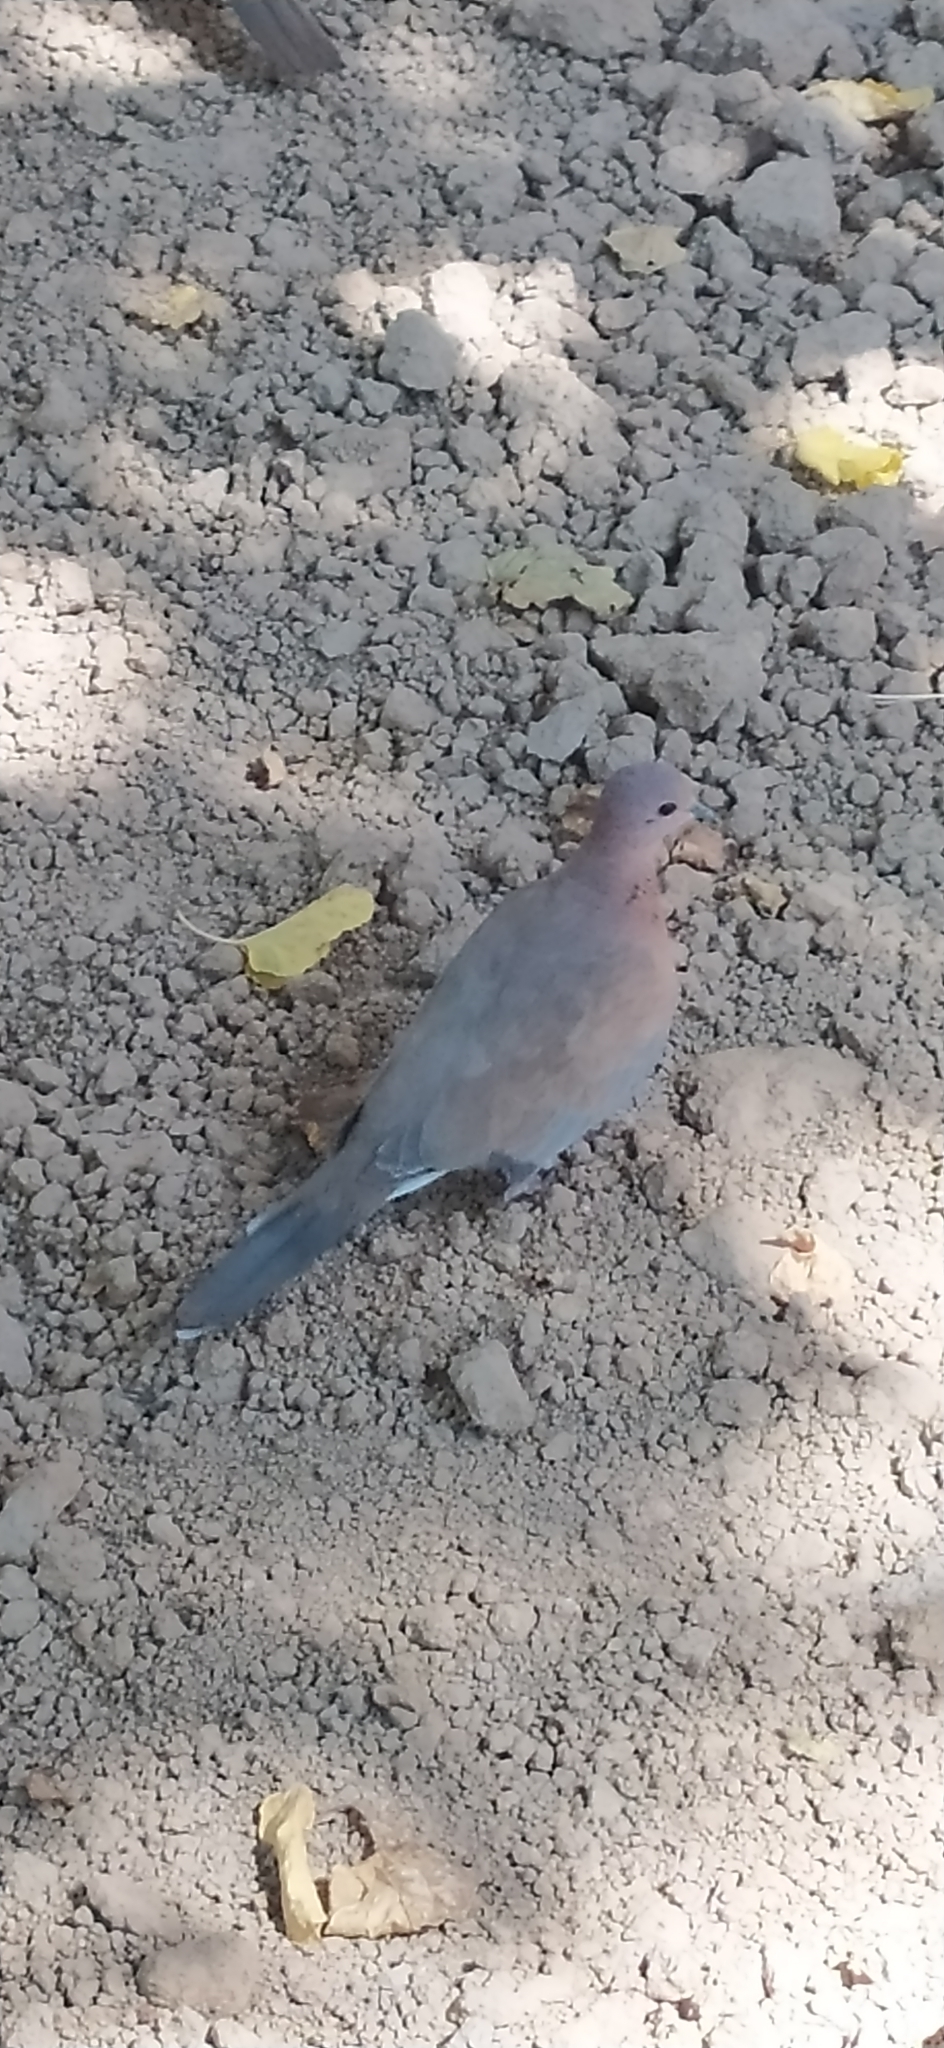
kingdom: Animalia
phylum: Chordata
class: Aves
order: Columbiformes
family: Columbidae
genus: Spilopelia
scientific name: Spilopelia senegalensis
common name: Laughing dove
